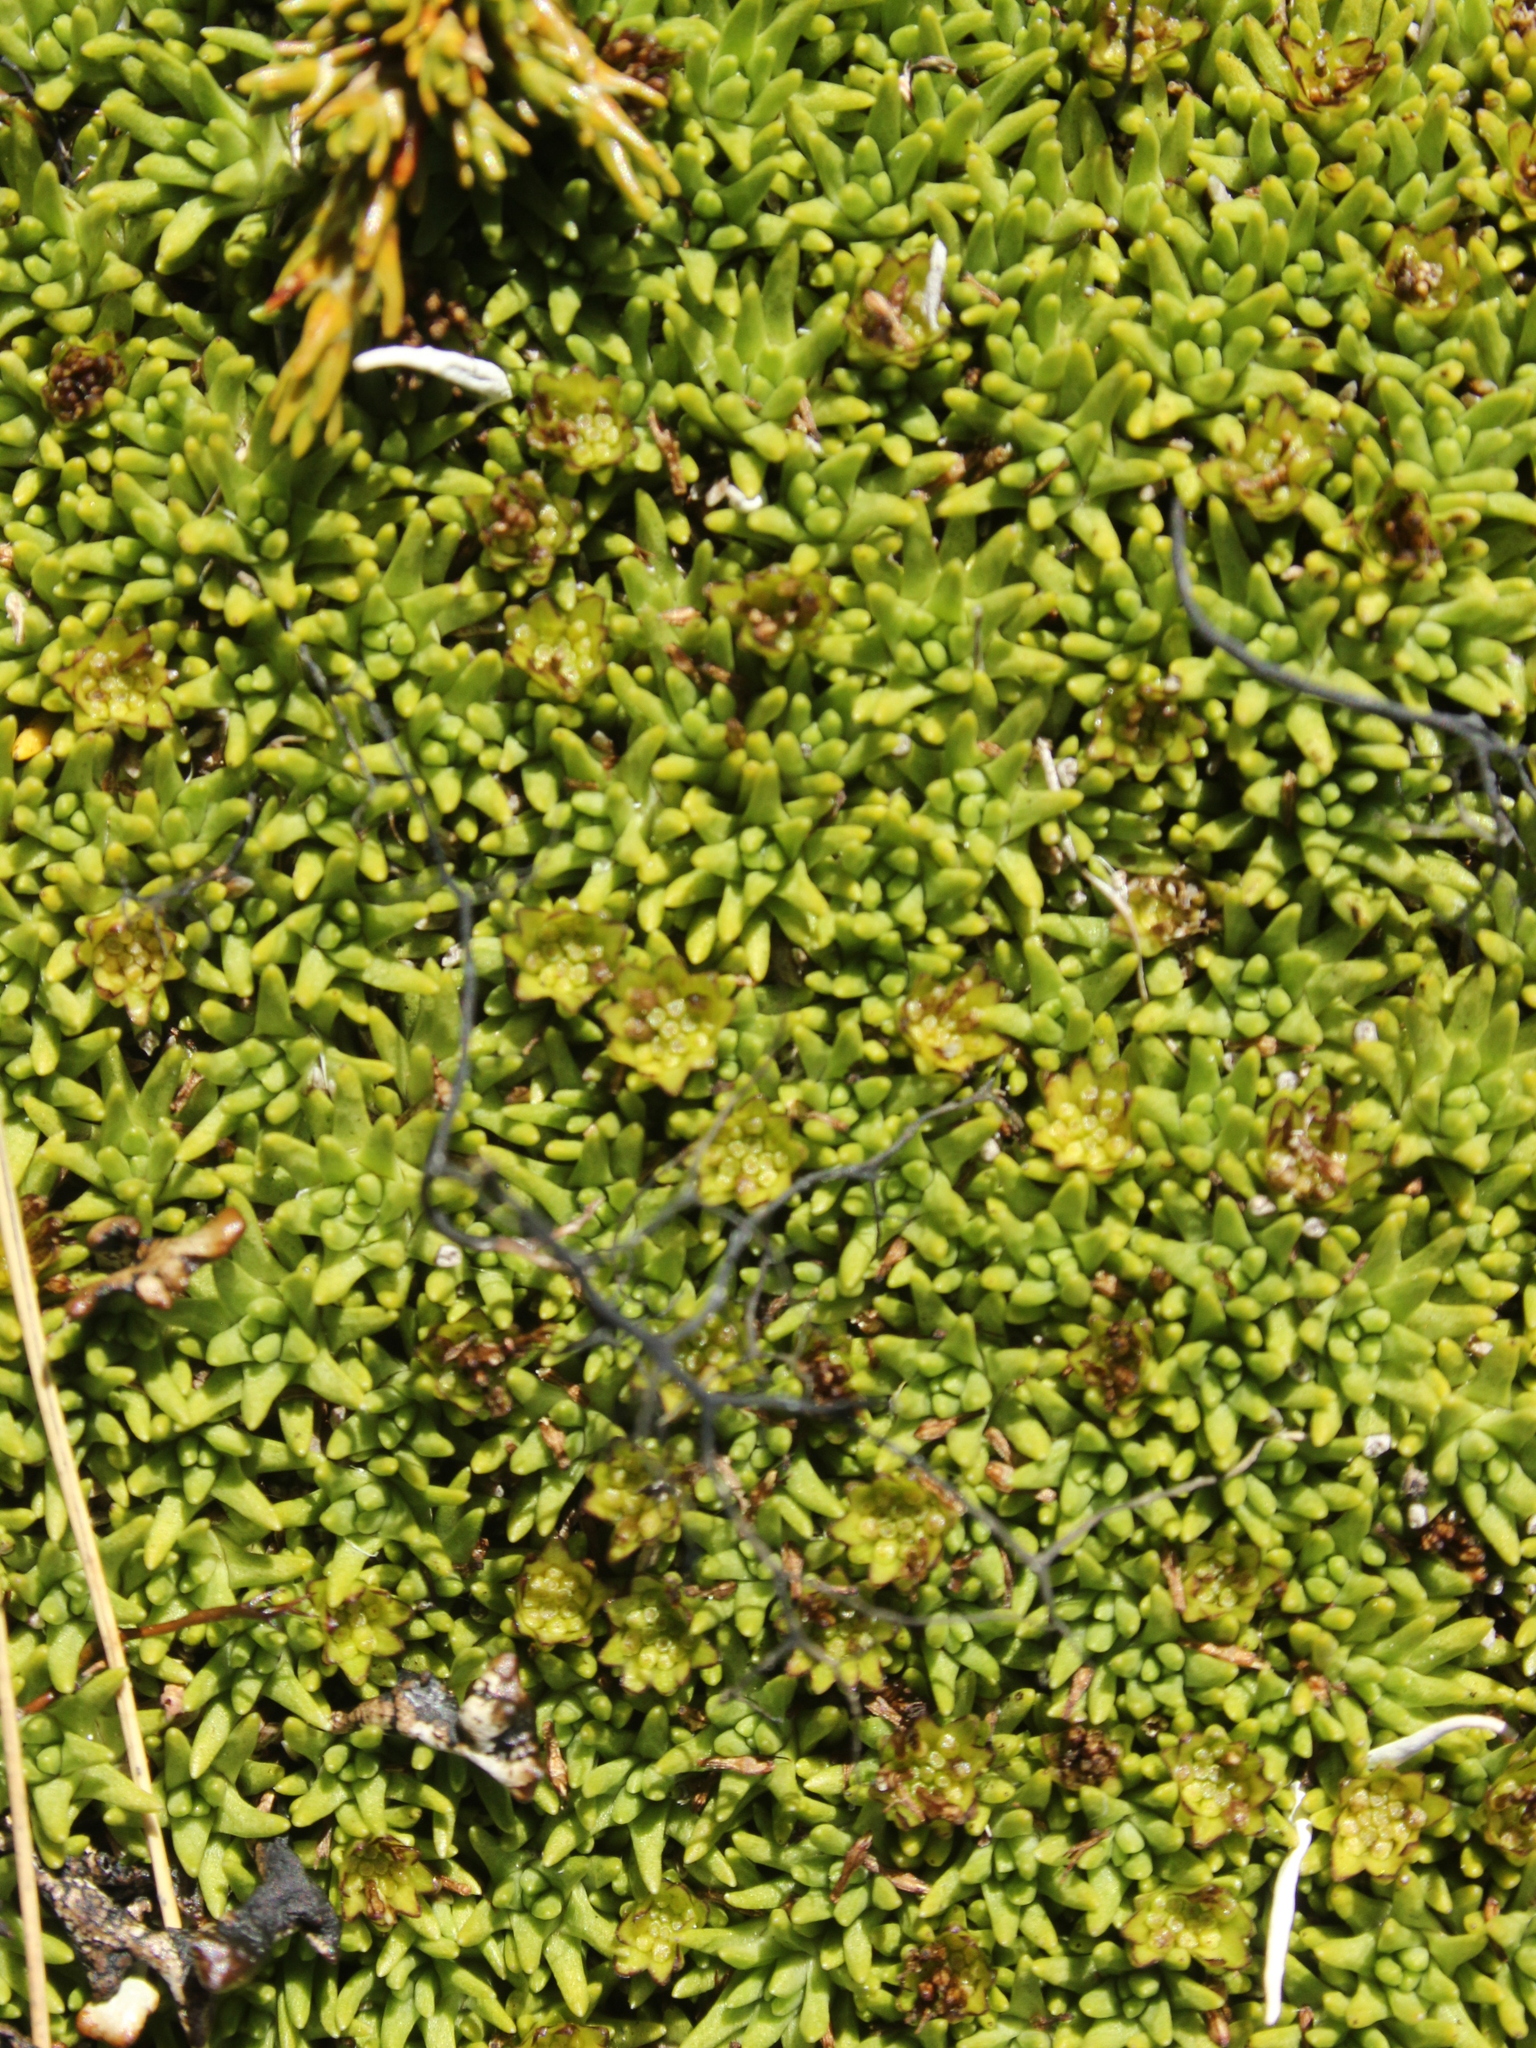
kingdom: Plantae
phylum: Tracheophyta
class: Magnoliopsida
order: Asterales
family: Asteraceae
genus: Abrotanella
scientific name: Abrotanella inconspicua
